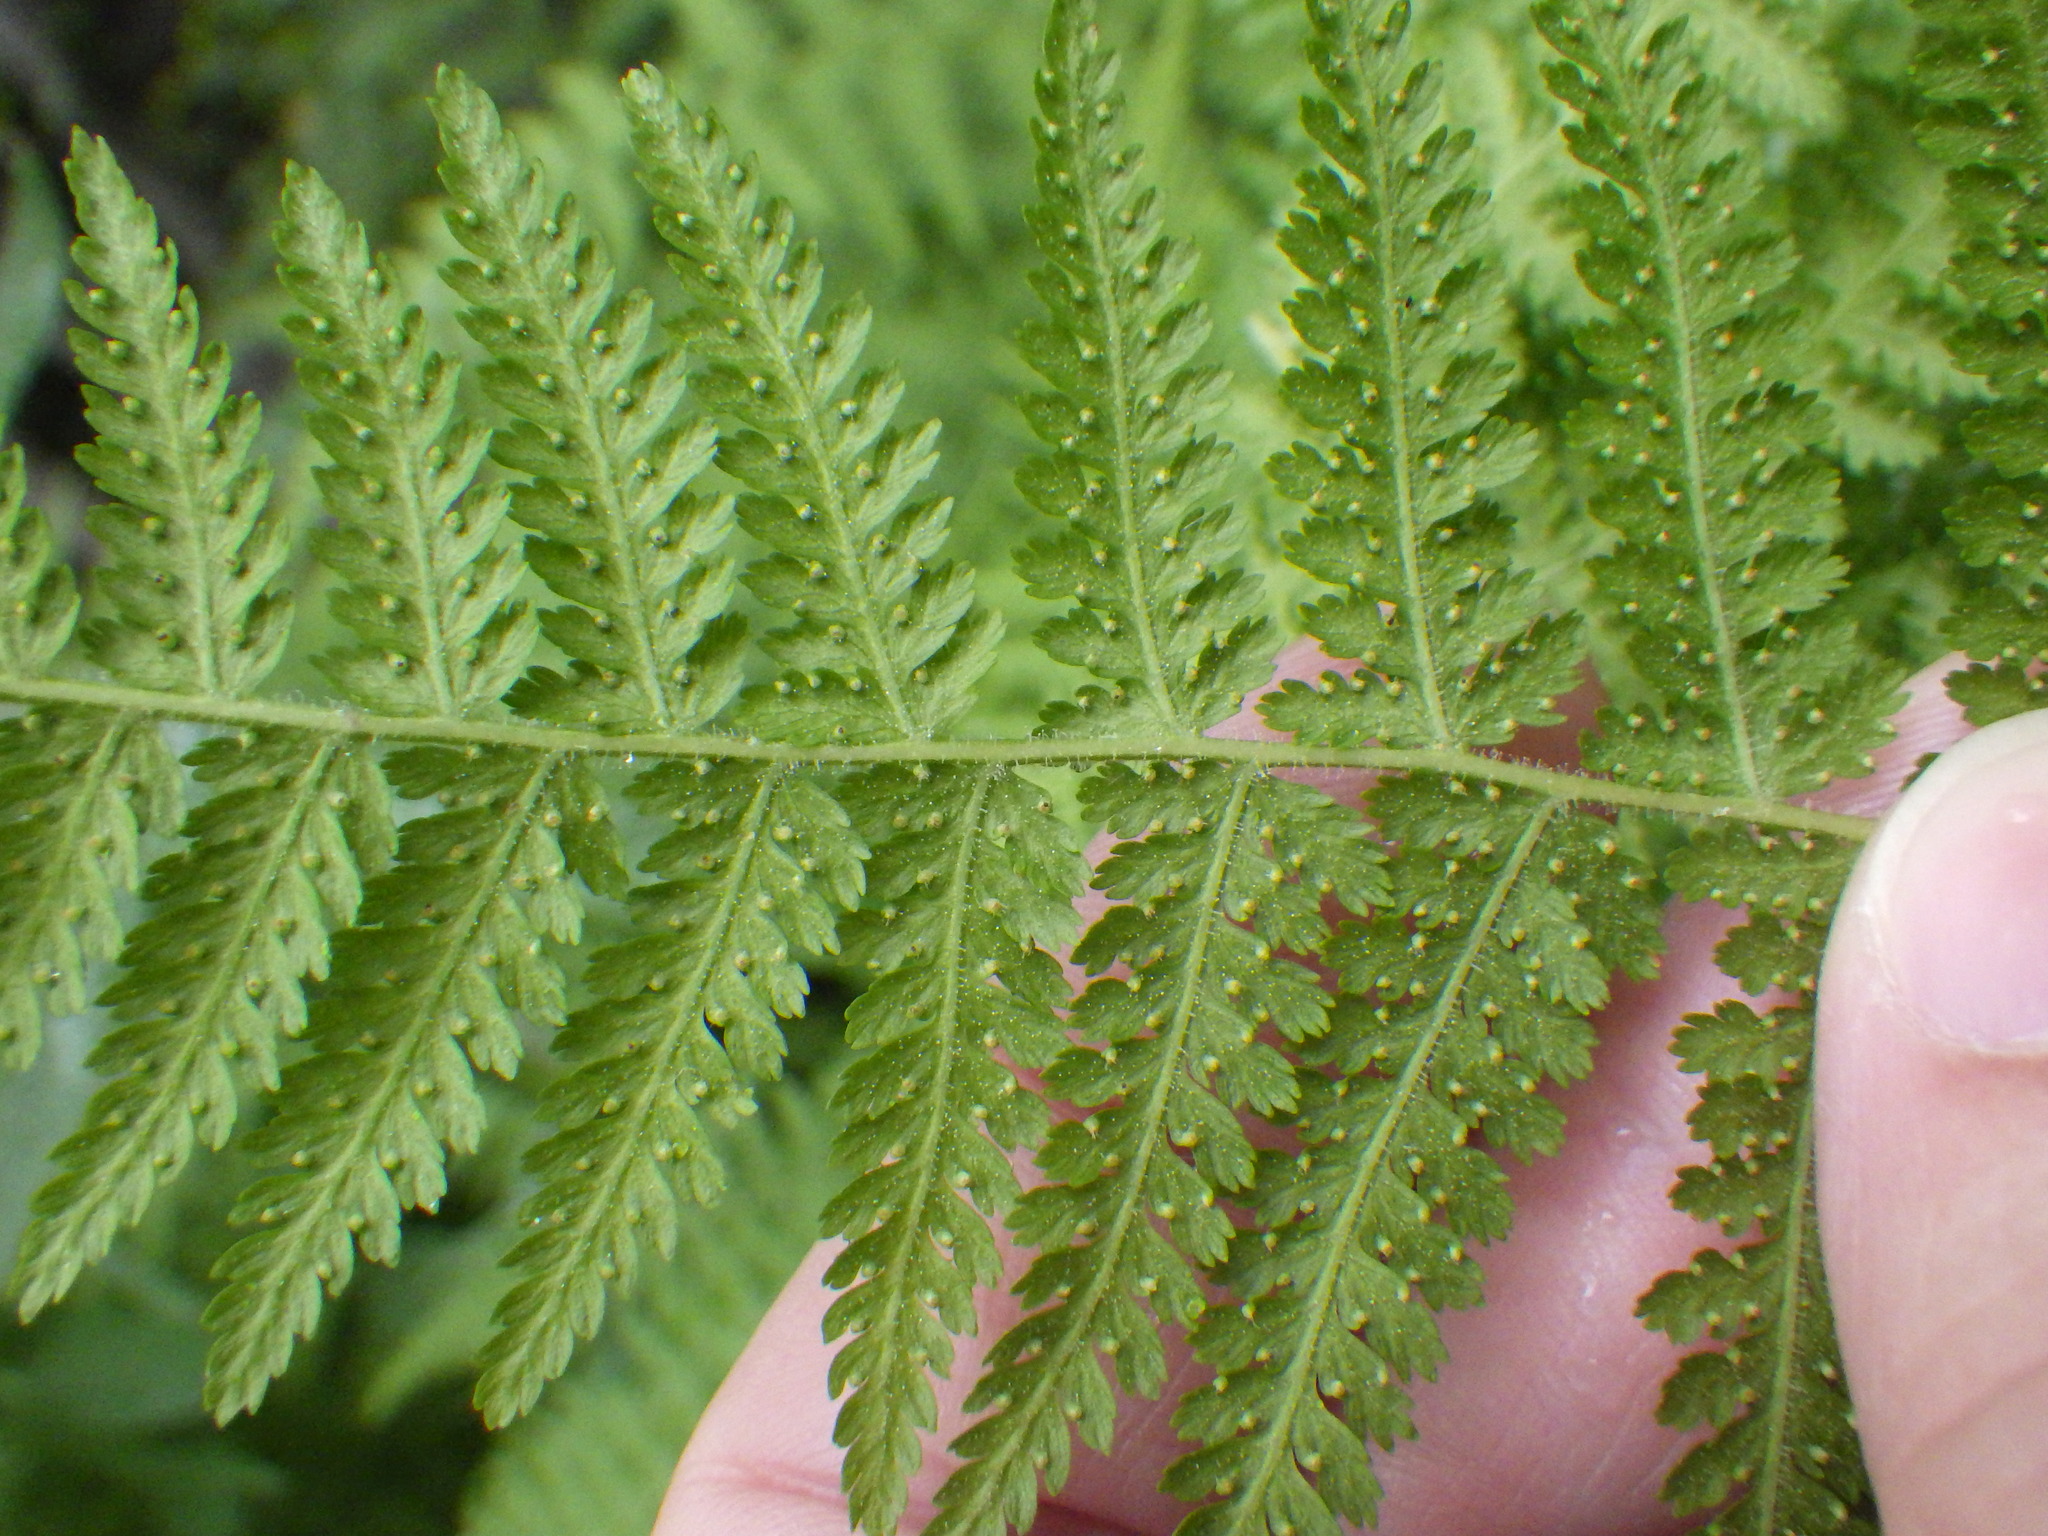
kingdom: Plantae
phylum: Tracheophyta
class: Polypodiopsida
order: Polypodiales
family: Dennstaedtiaceae
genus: Sitobolium
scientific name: Sitobolium punctilobum
